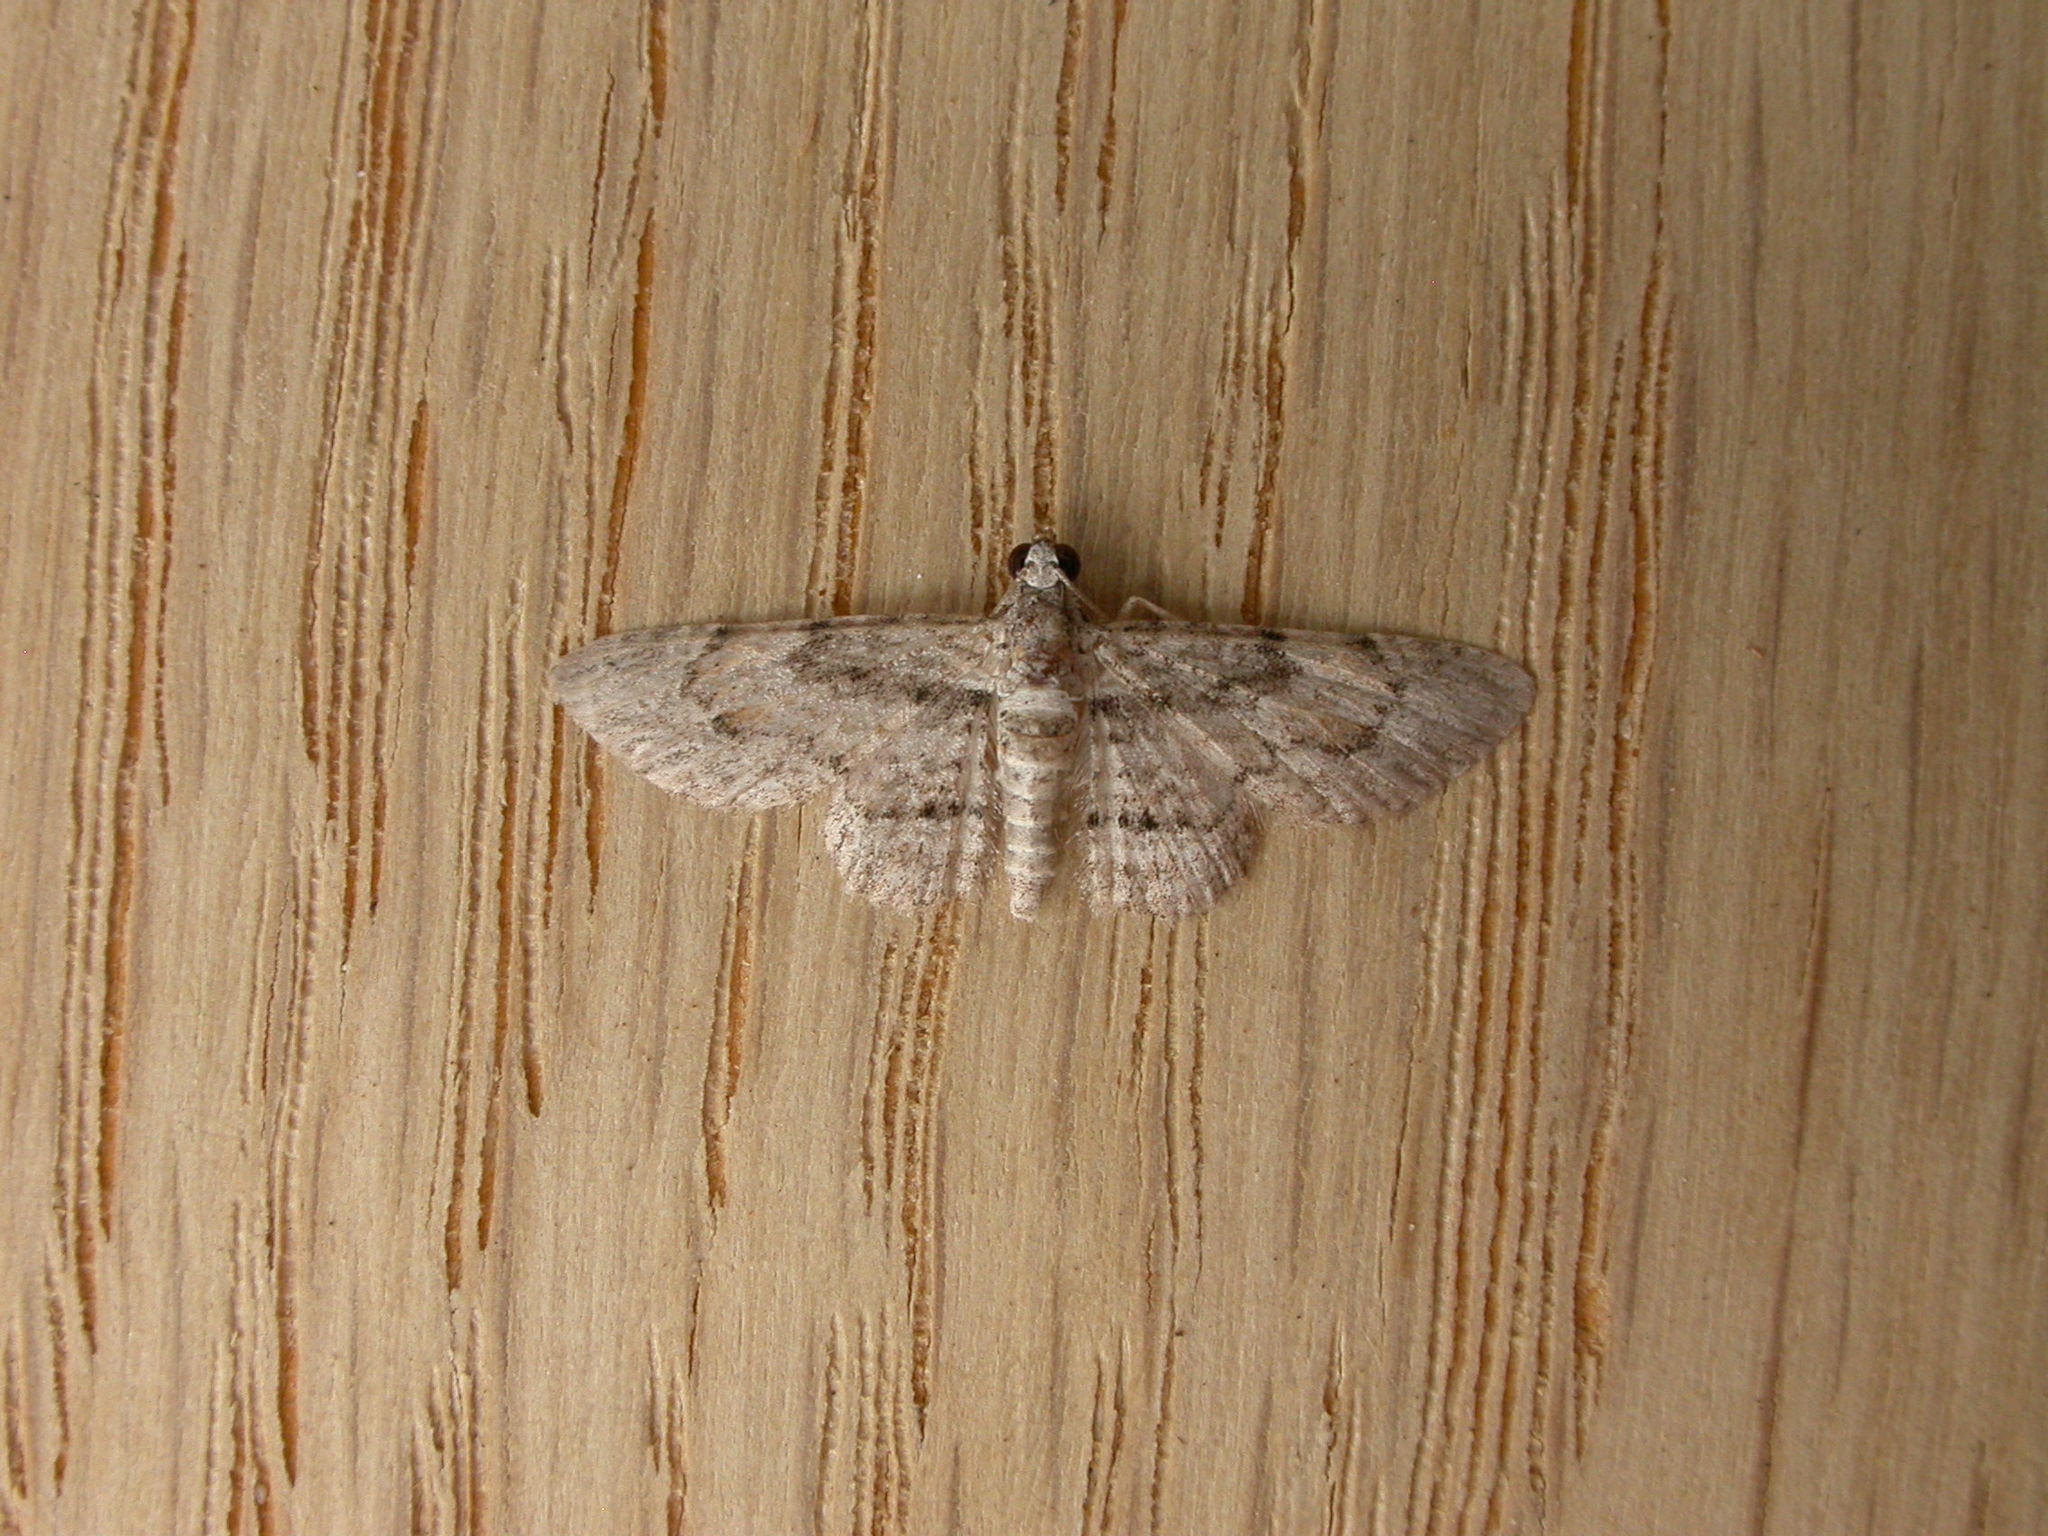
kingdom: Animalia
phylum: Arthropoda
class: Insecta
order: Lepidoptera
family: Geometridae
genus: Chloroclystis
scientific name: Chloroclystis insigillata
